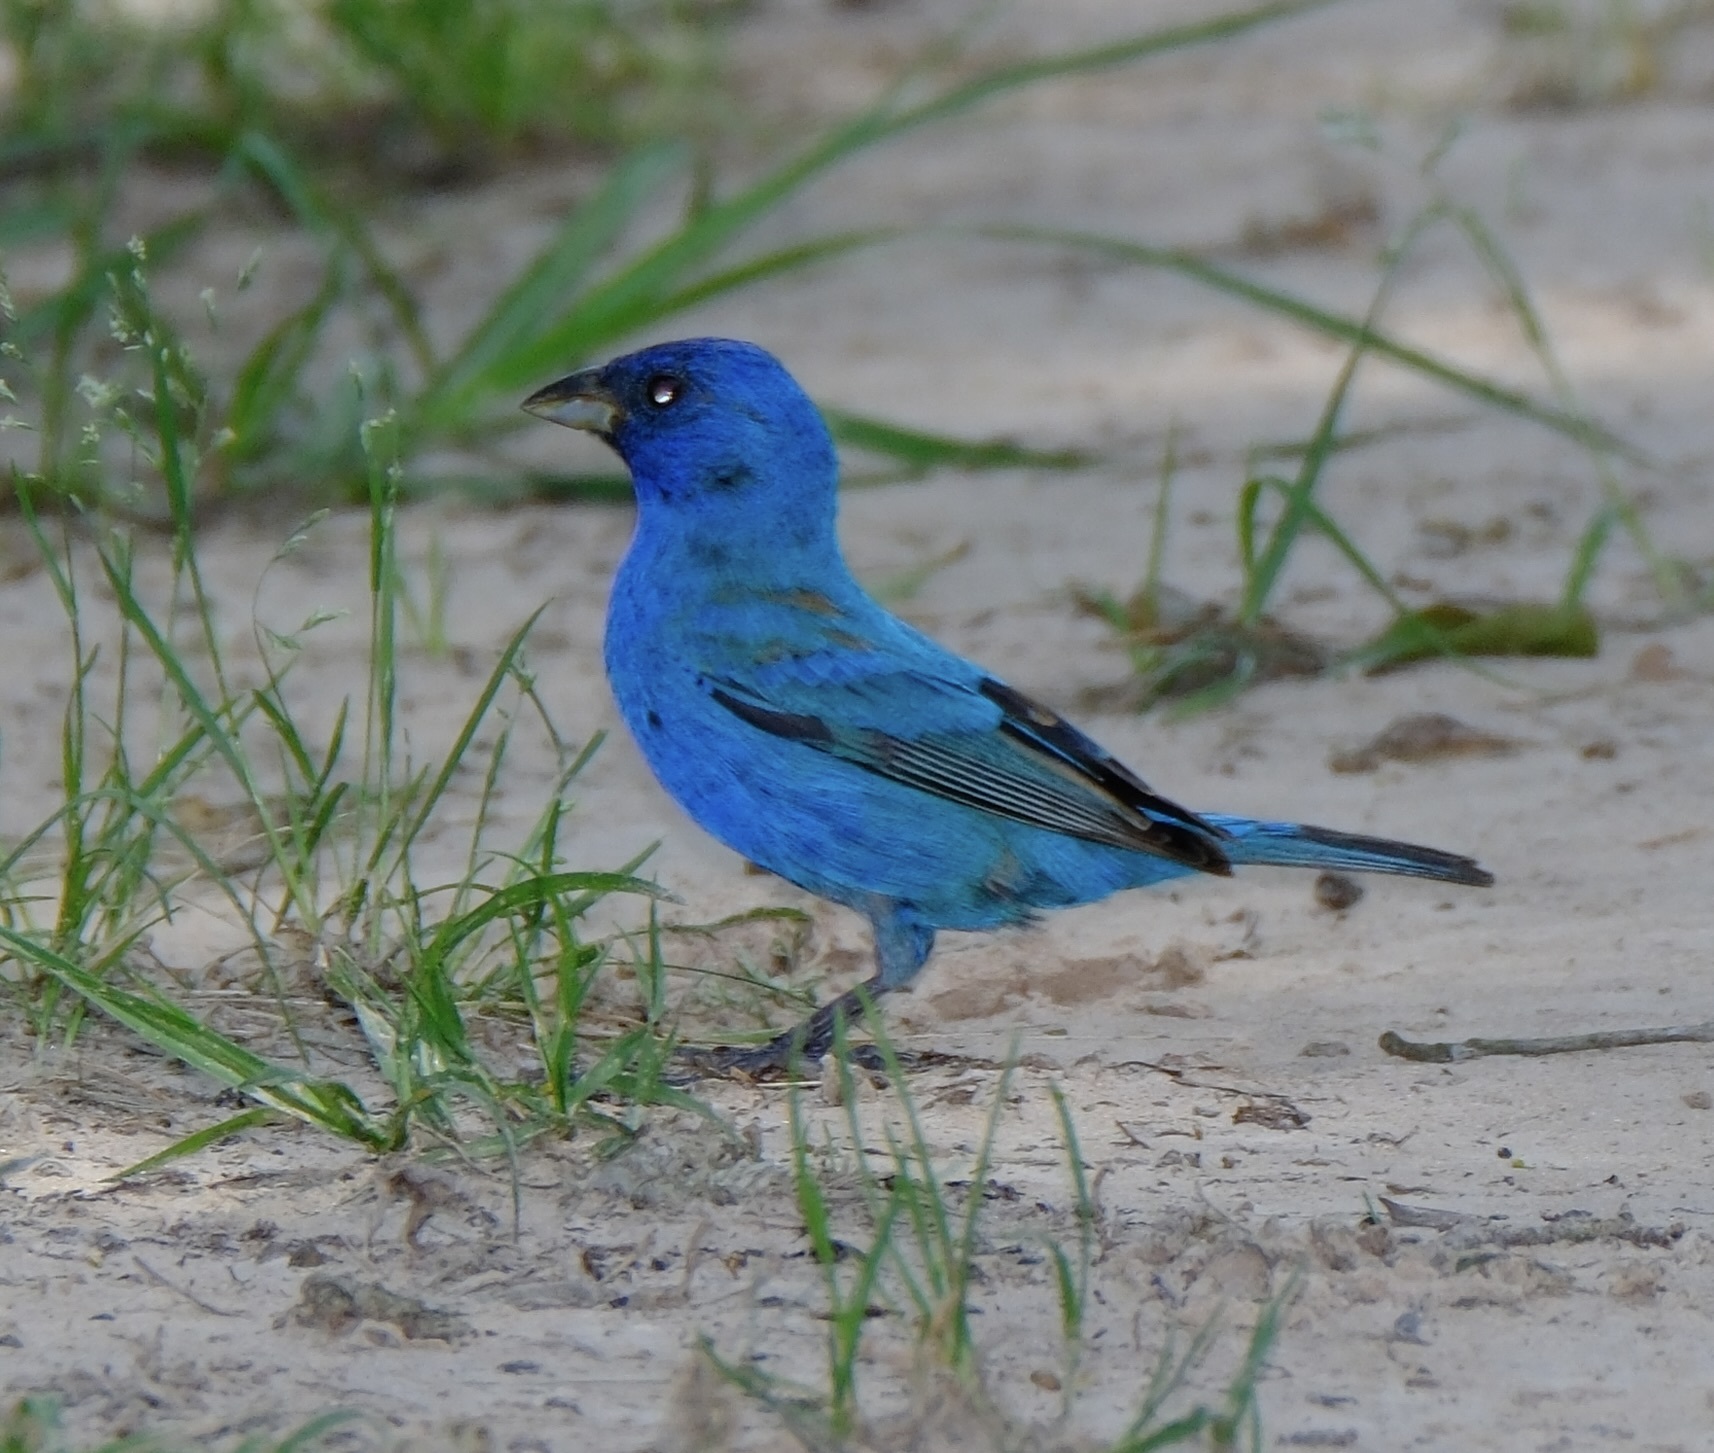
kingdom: Animalia
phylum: Chordata
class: Aves
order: Passeriformes
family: Cardinalidae
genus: Passerina
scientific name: Passerina cyanea
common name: Indigo bunting
